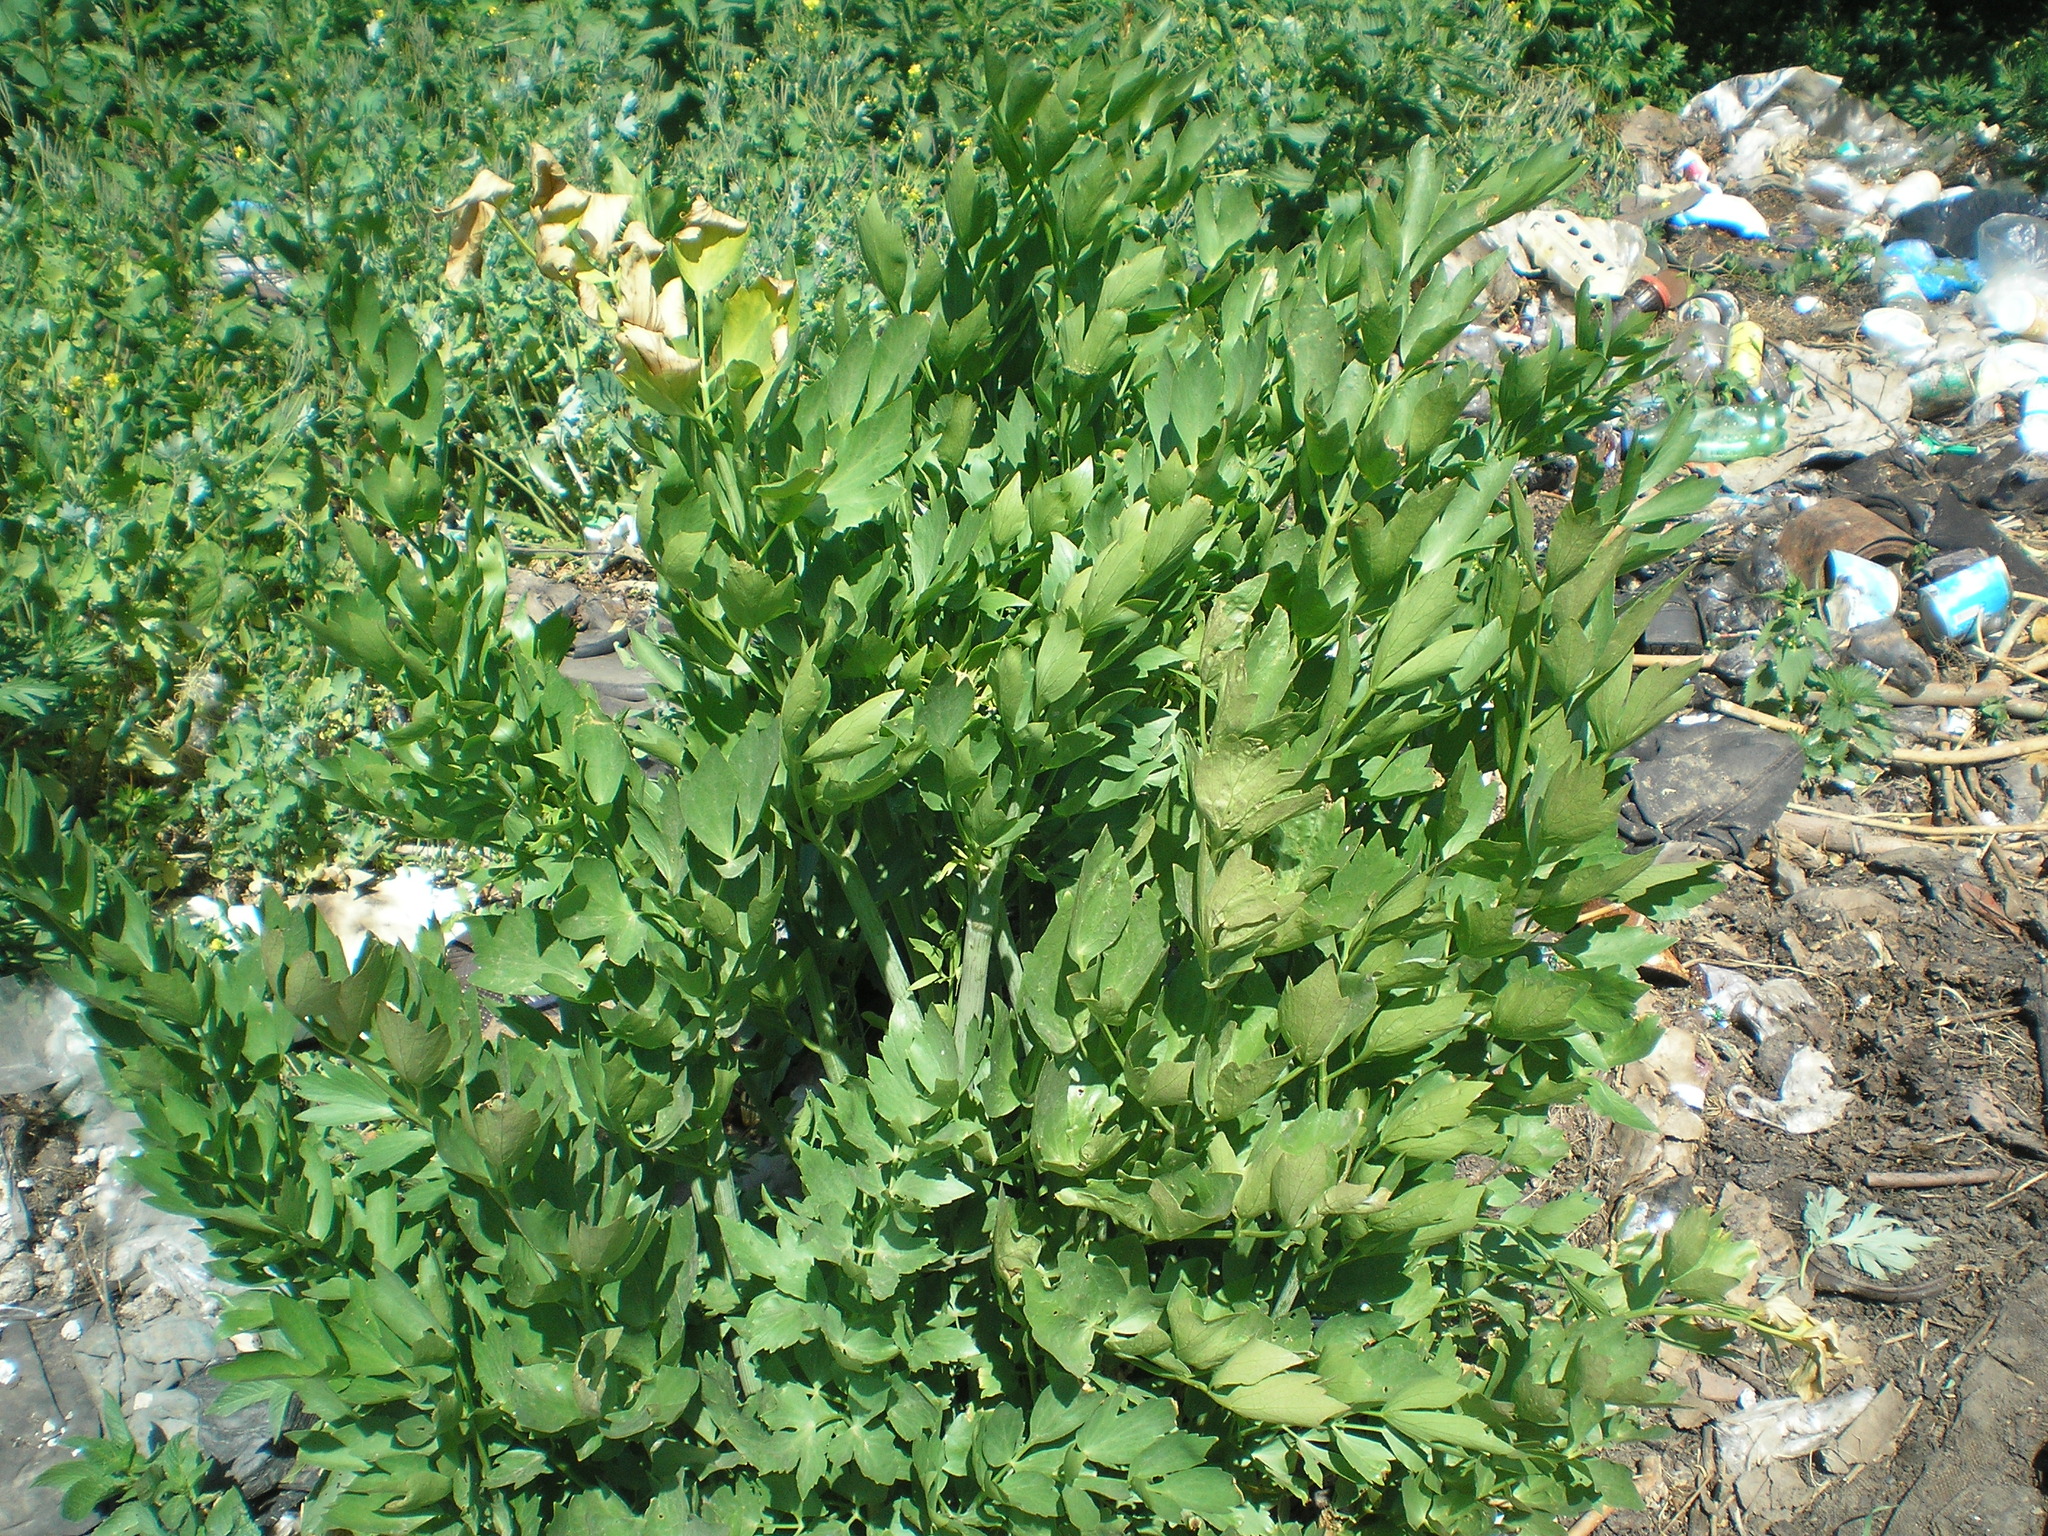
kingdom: Plantae
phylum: Tracheophyta
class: Magnoliopsida
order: Apiales
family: Apiaceae
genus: Apium
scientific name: Apium graveolens
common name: Wild celery
